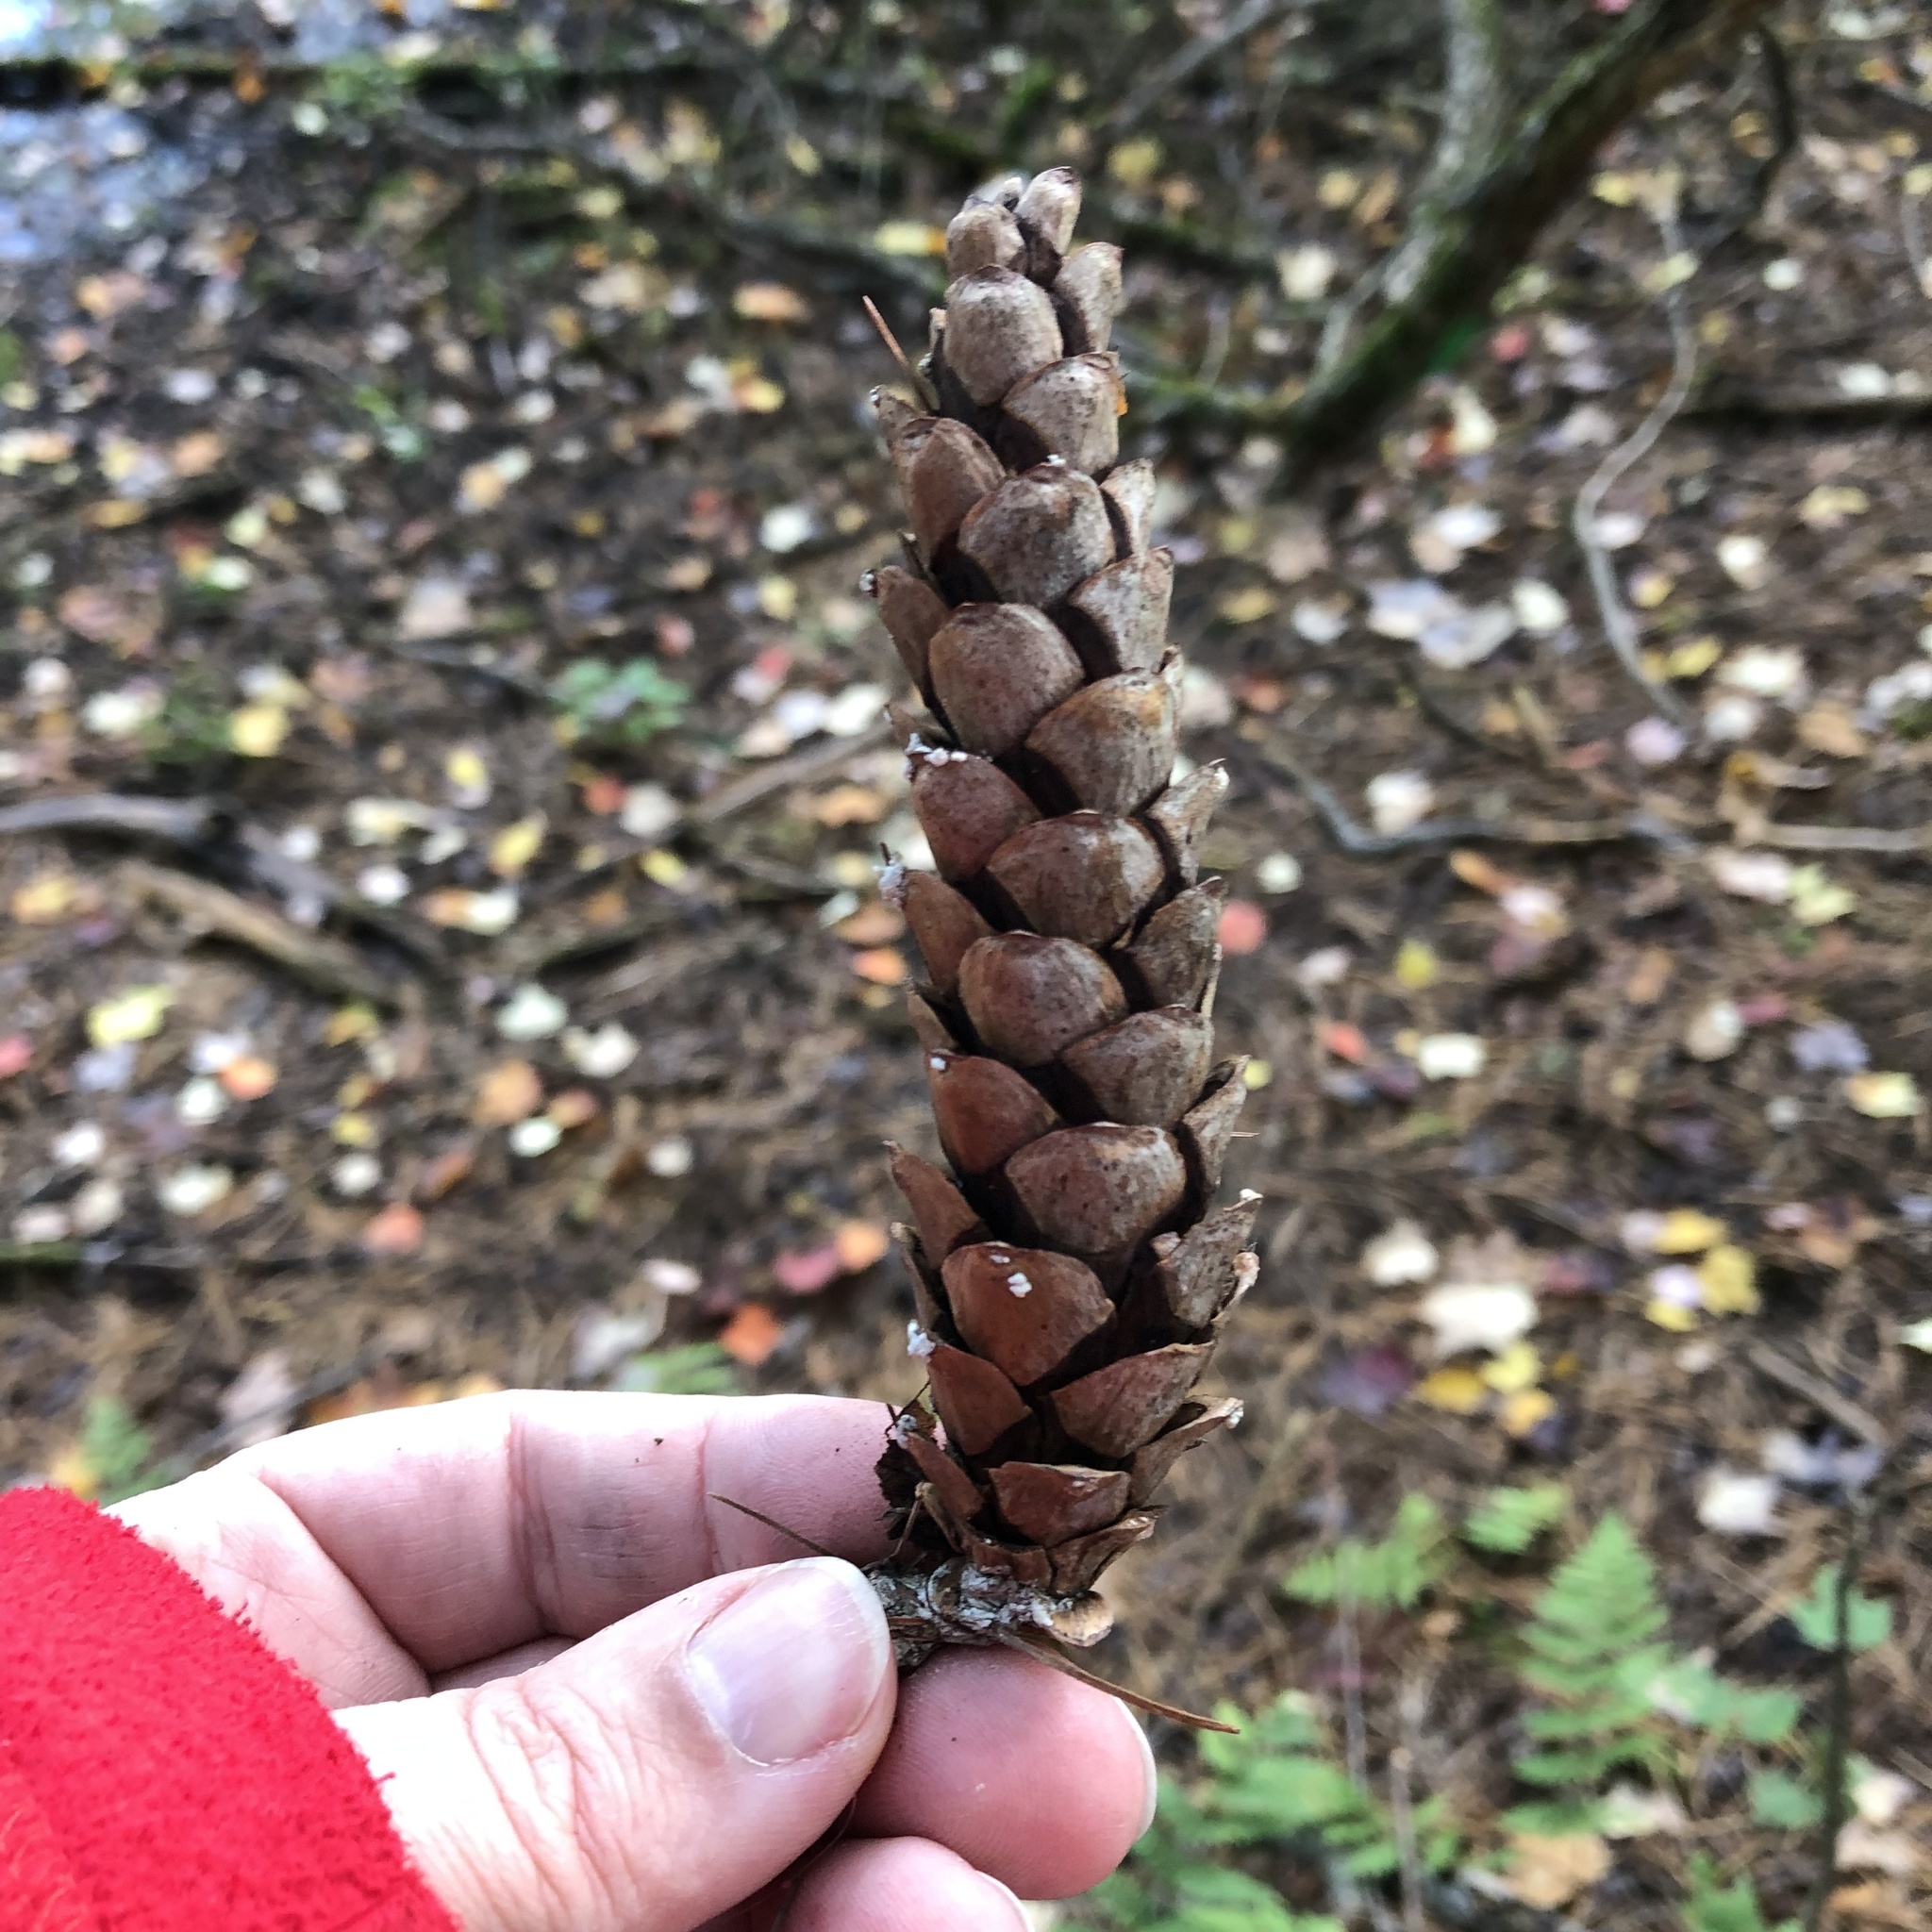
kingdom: Plantae
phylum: Tracheophyta
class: Pinopsida
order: Pinales
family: Pinaceae
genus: Pinus
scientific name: Pinus strobus
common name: Weymouth pine
